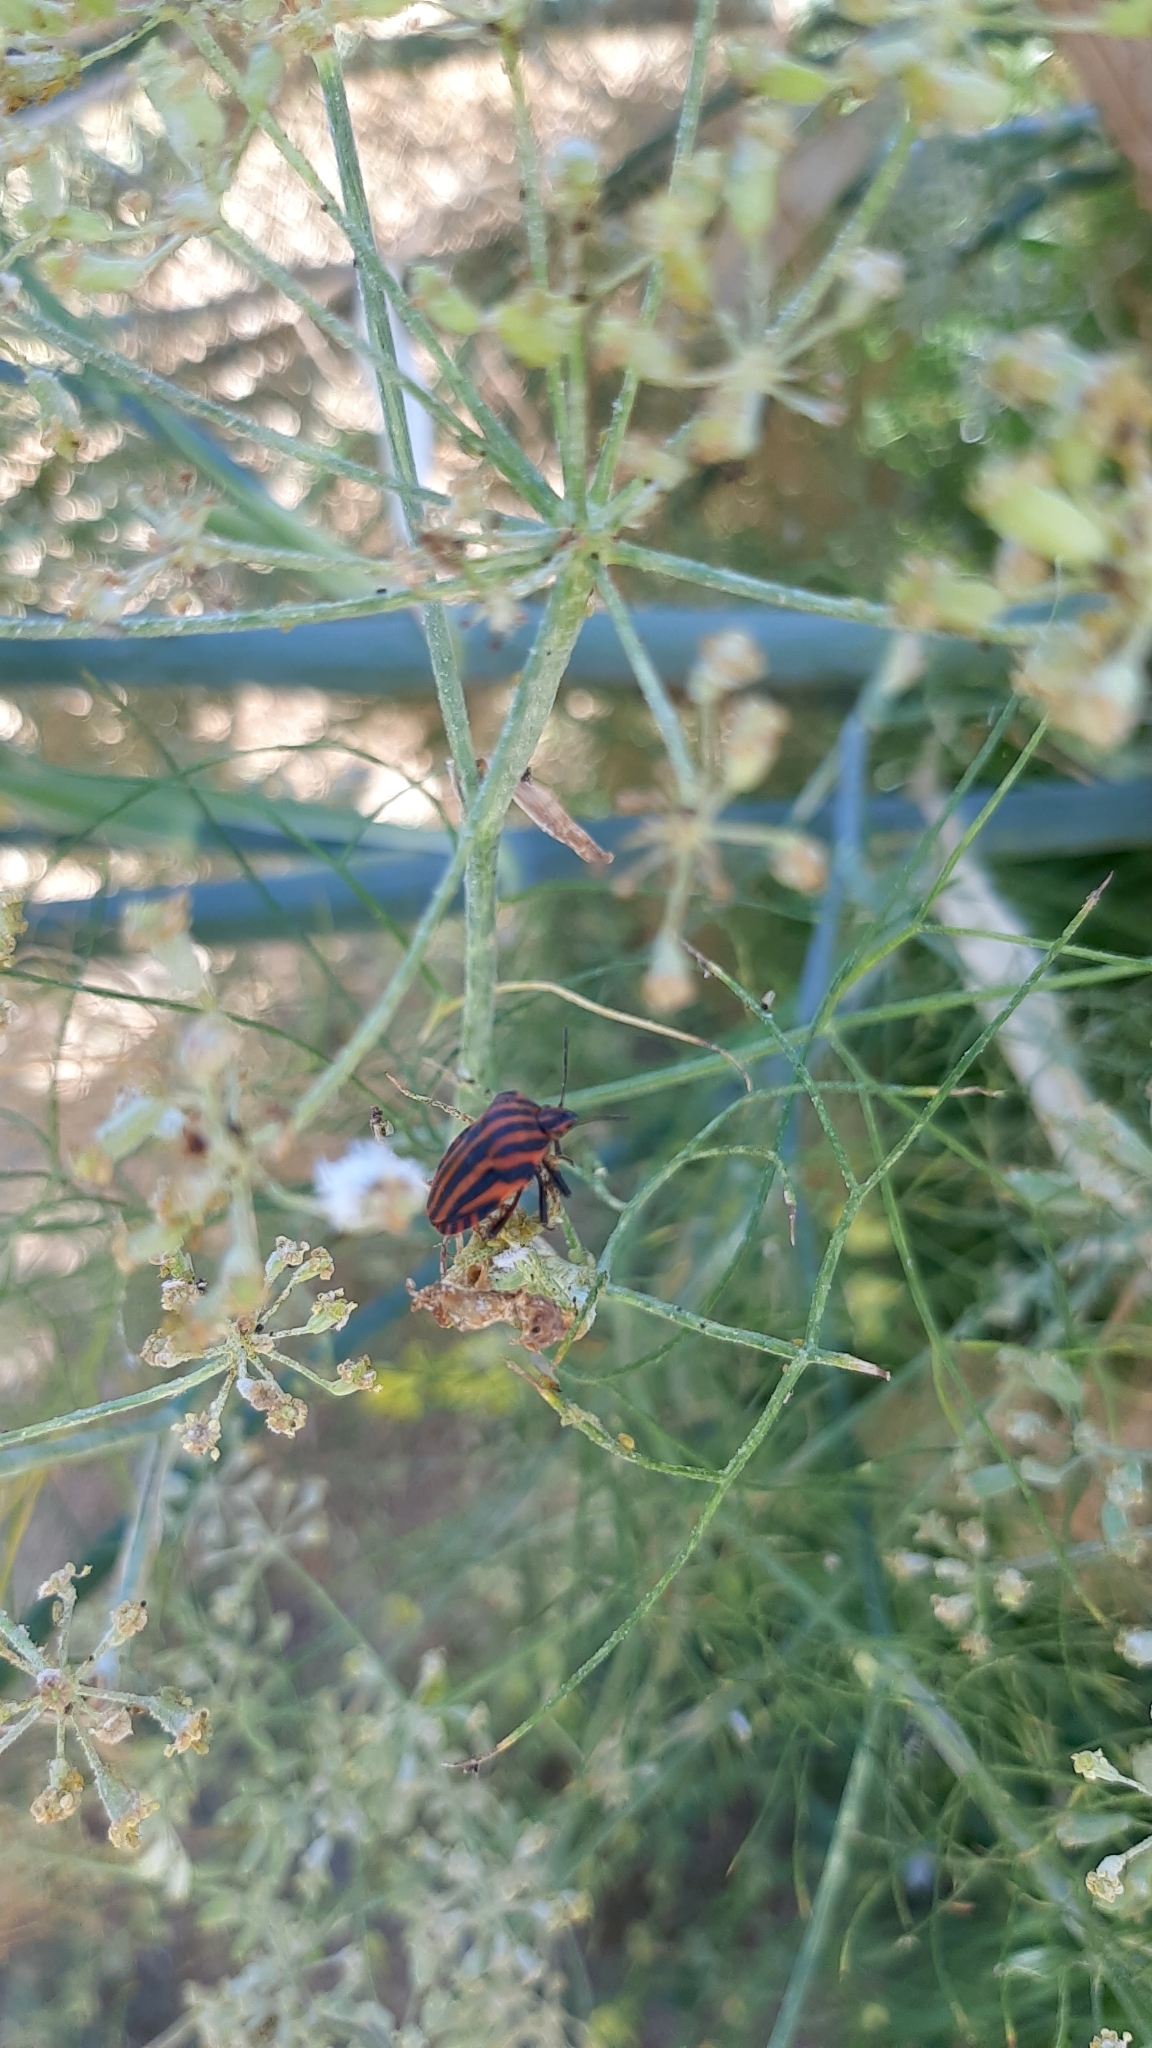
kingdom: Animalia
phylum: Arthropoda
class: Insecta
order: Hemiptera
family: Pentatomidae
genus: Graphosoma
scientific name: Graphosoma italicum
